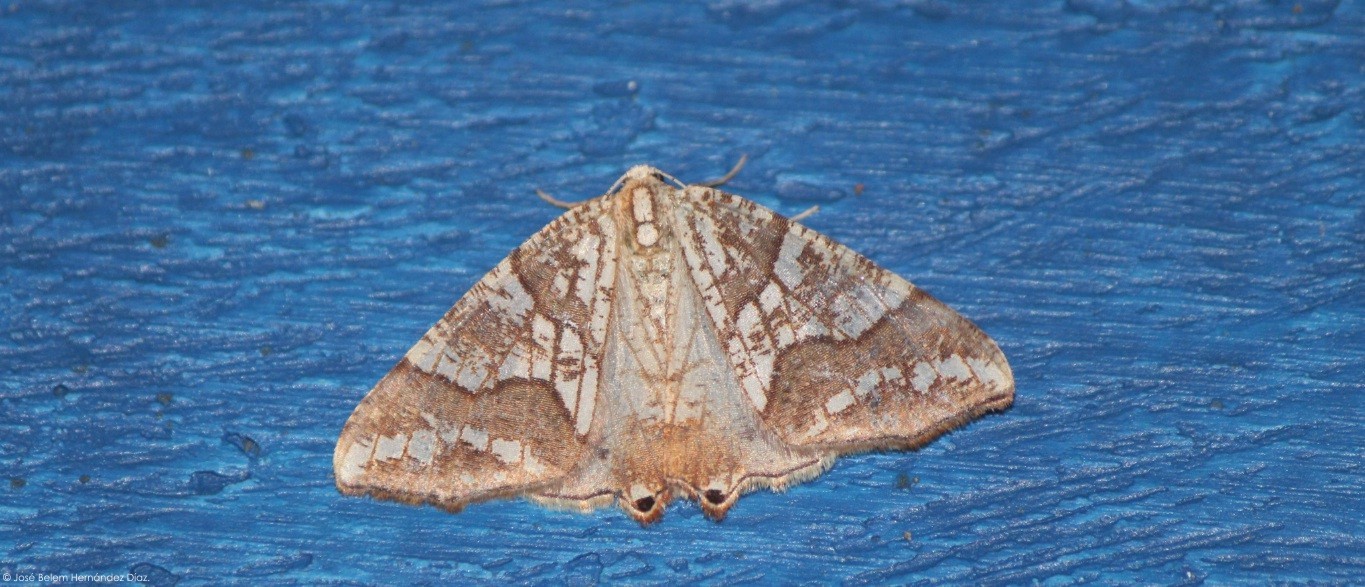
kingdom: Animalia
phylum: Arthropoda
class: Insecta
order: Lepidoptera
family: Geometridae
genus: Rindgeria
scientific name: Rindgeria ornata
